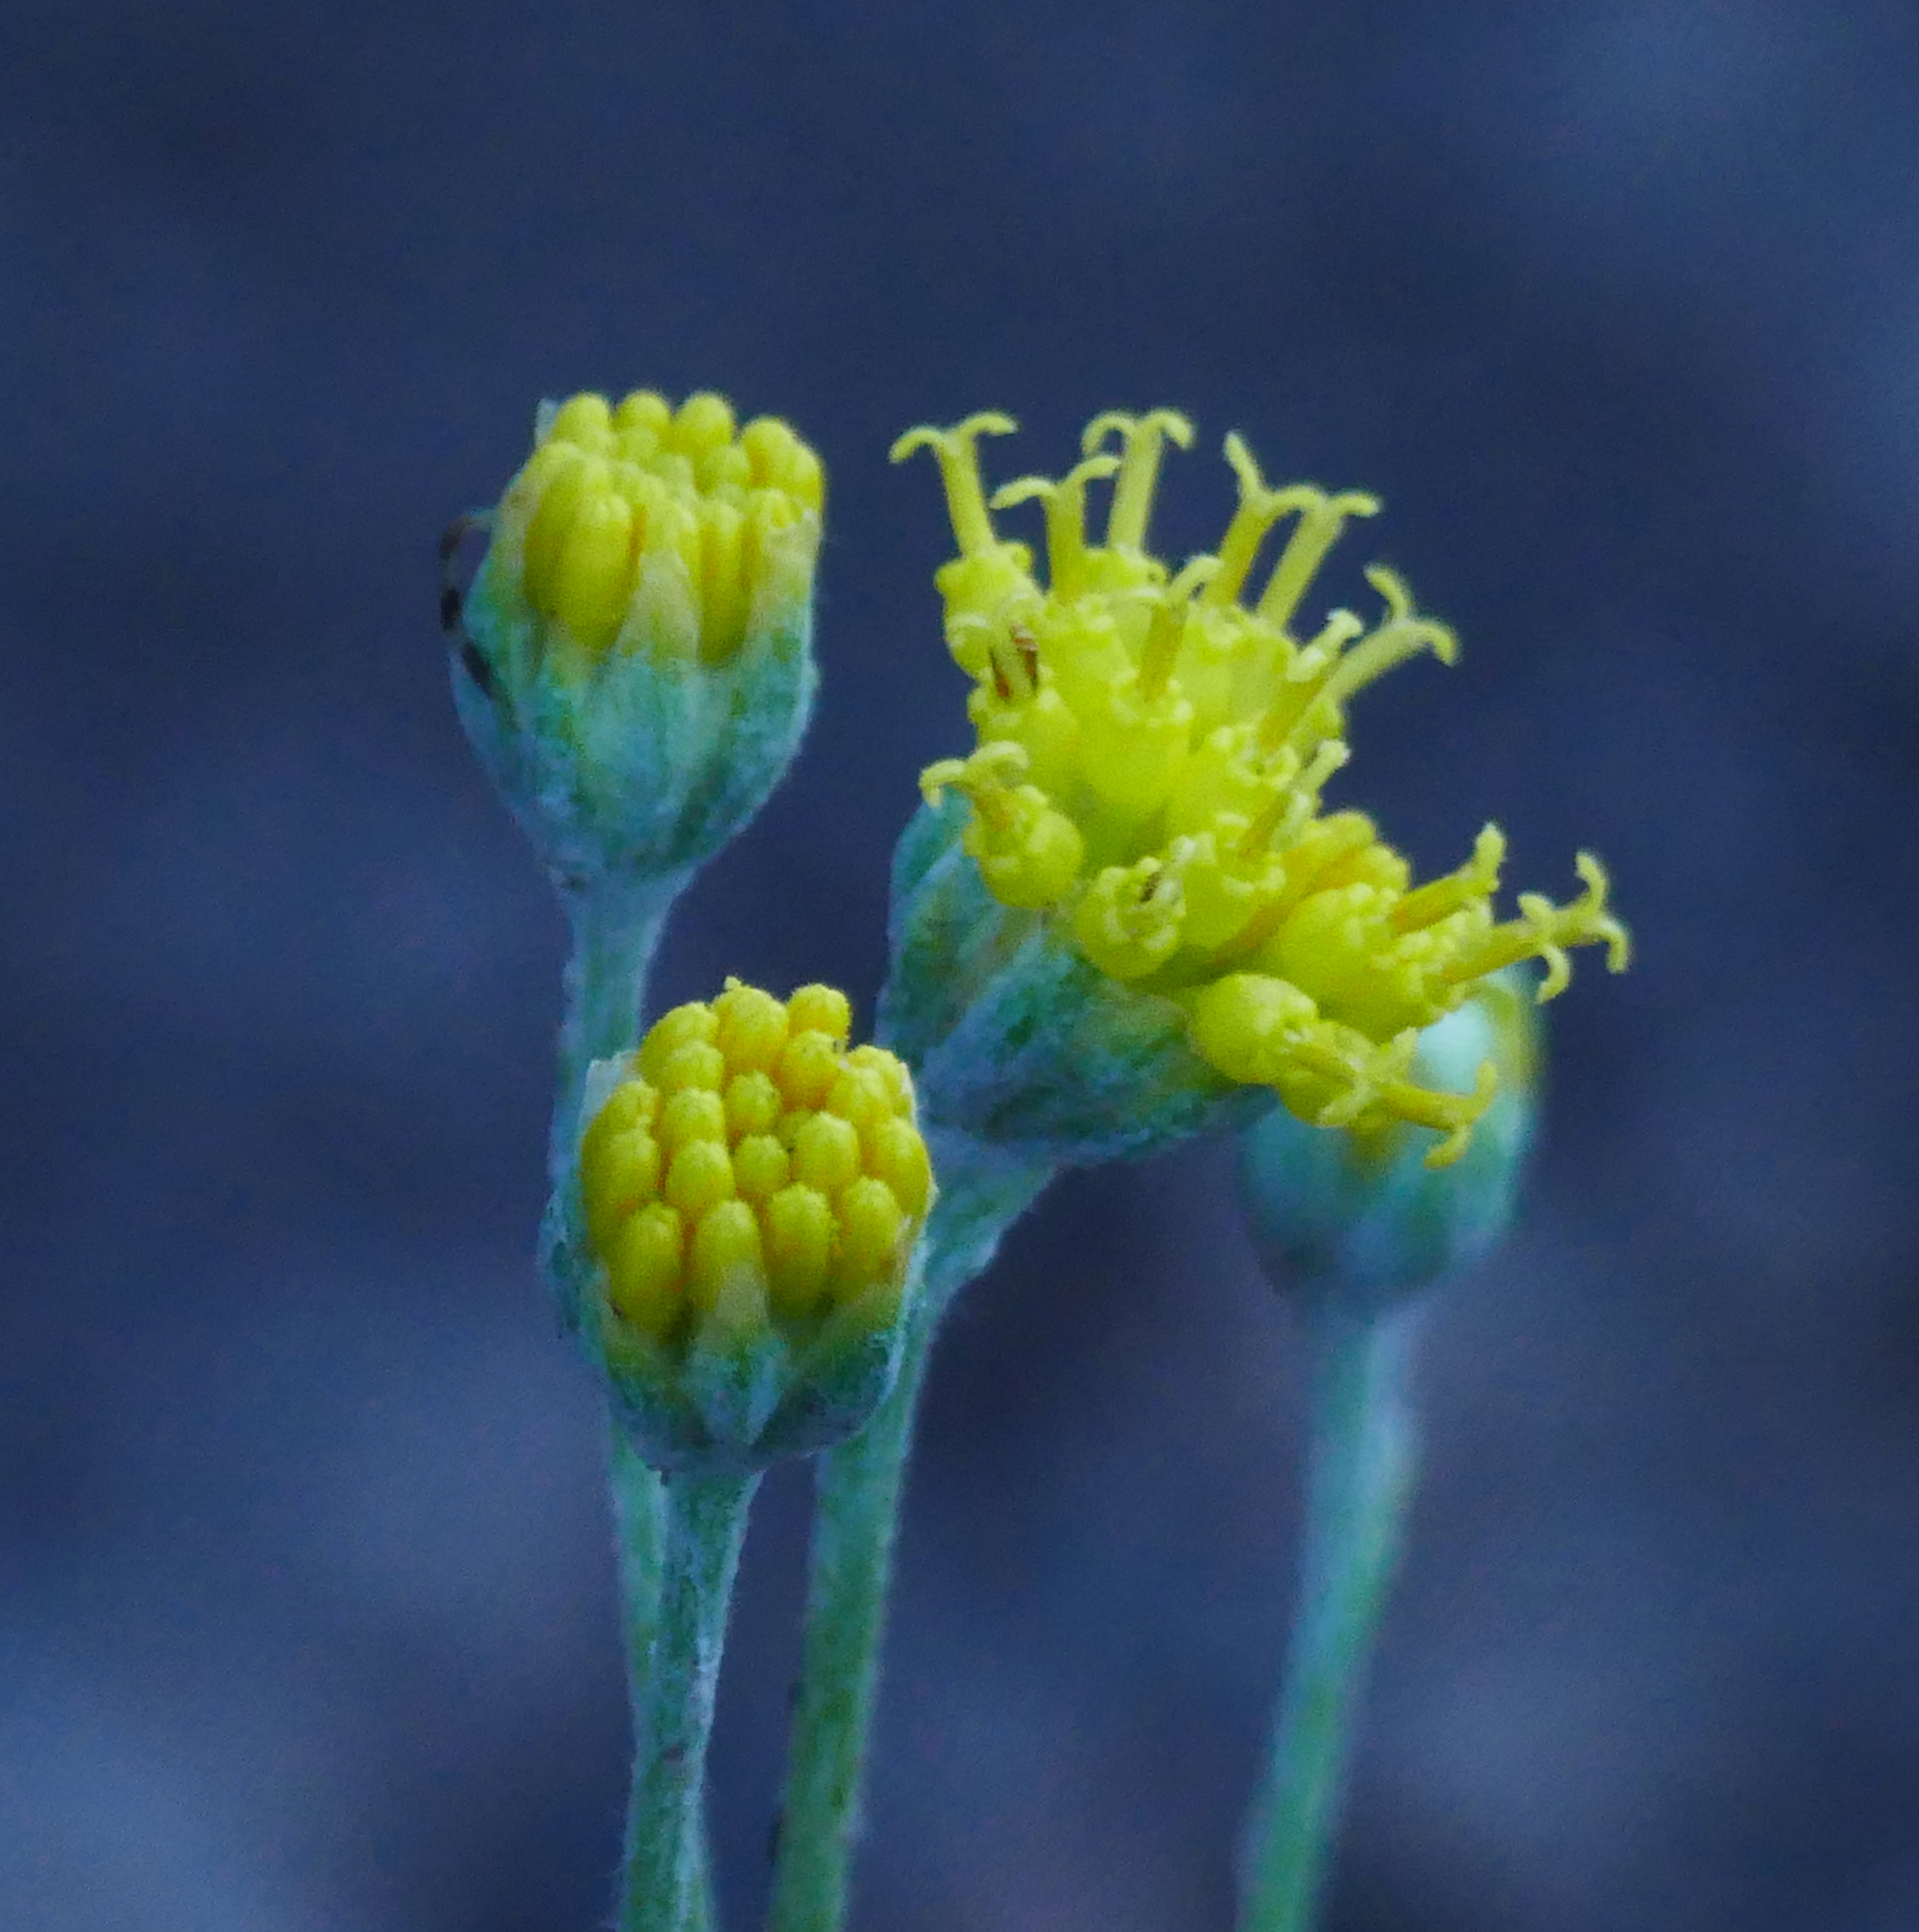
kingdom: Plantae
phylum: Tracheophyta
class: Magnoliopsida
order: Asterales
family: Asteraceae
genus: Hymenopappus
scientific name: Hymenopappus filifolius
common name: Columbia cutleaf
